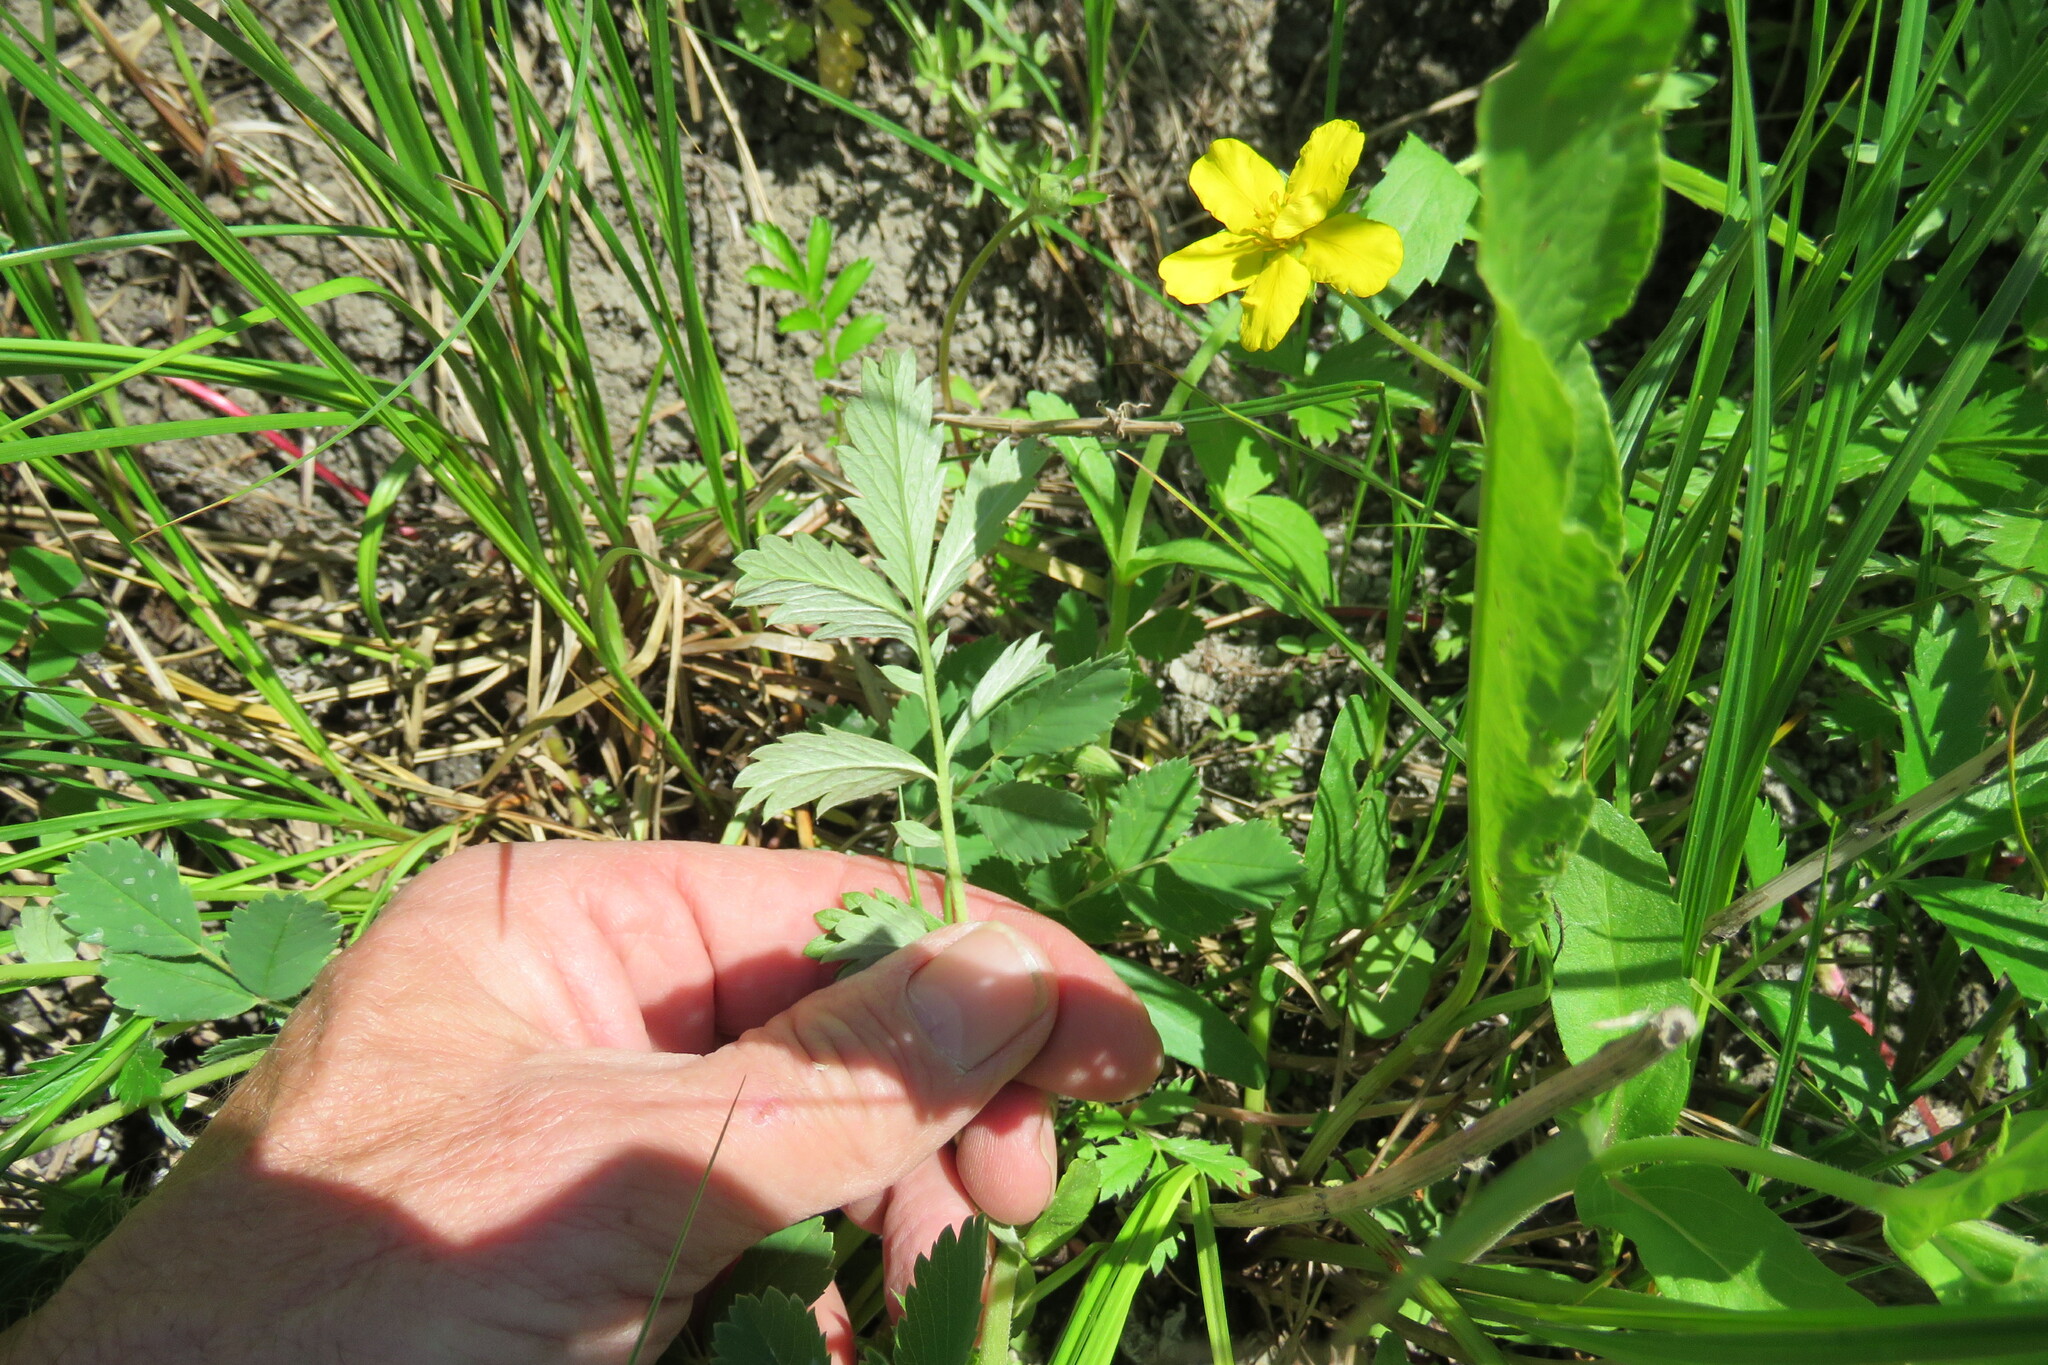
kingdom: Plantae
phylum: Tracheophyta
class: Magnoliopsida
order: Rosales
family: Rosaceae
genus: Argentina
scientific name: Argentina anserina
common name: Common silverweed
